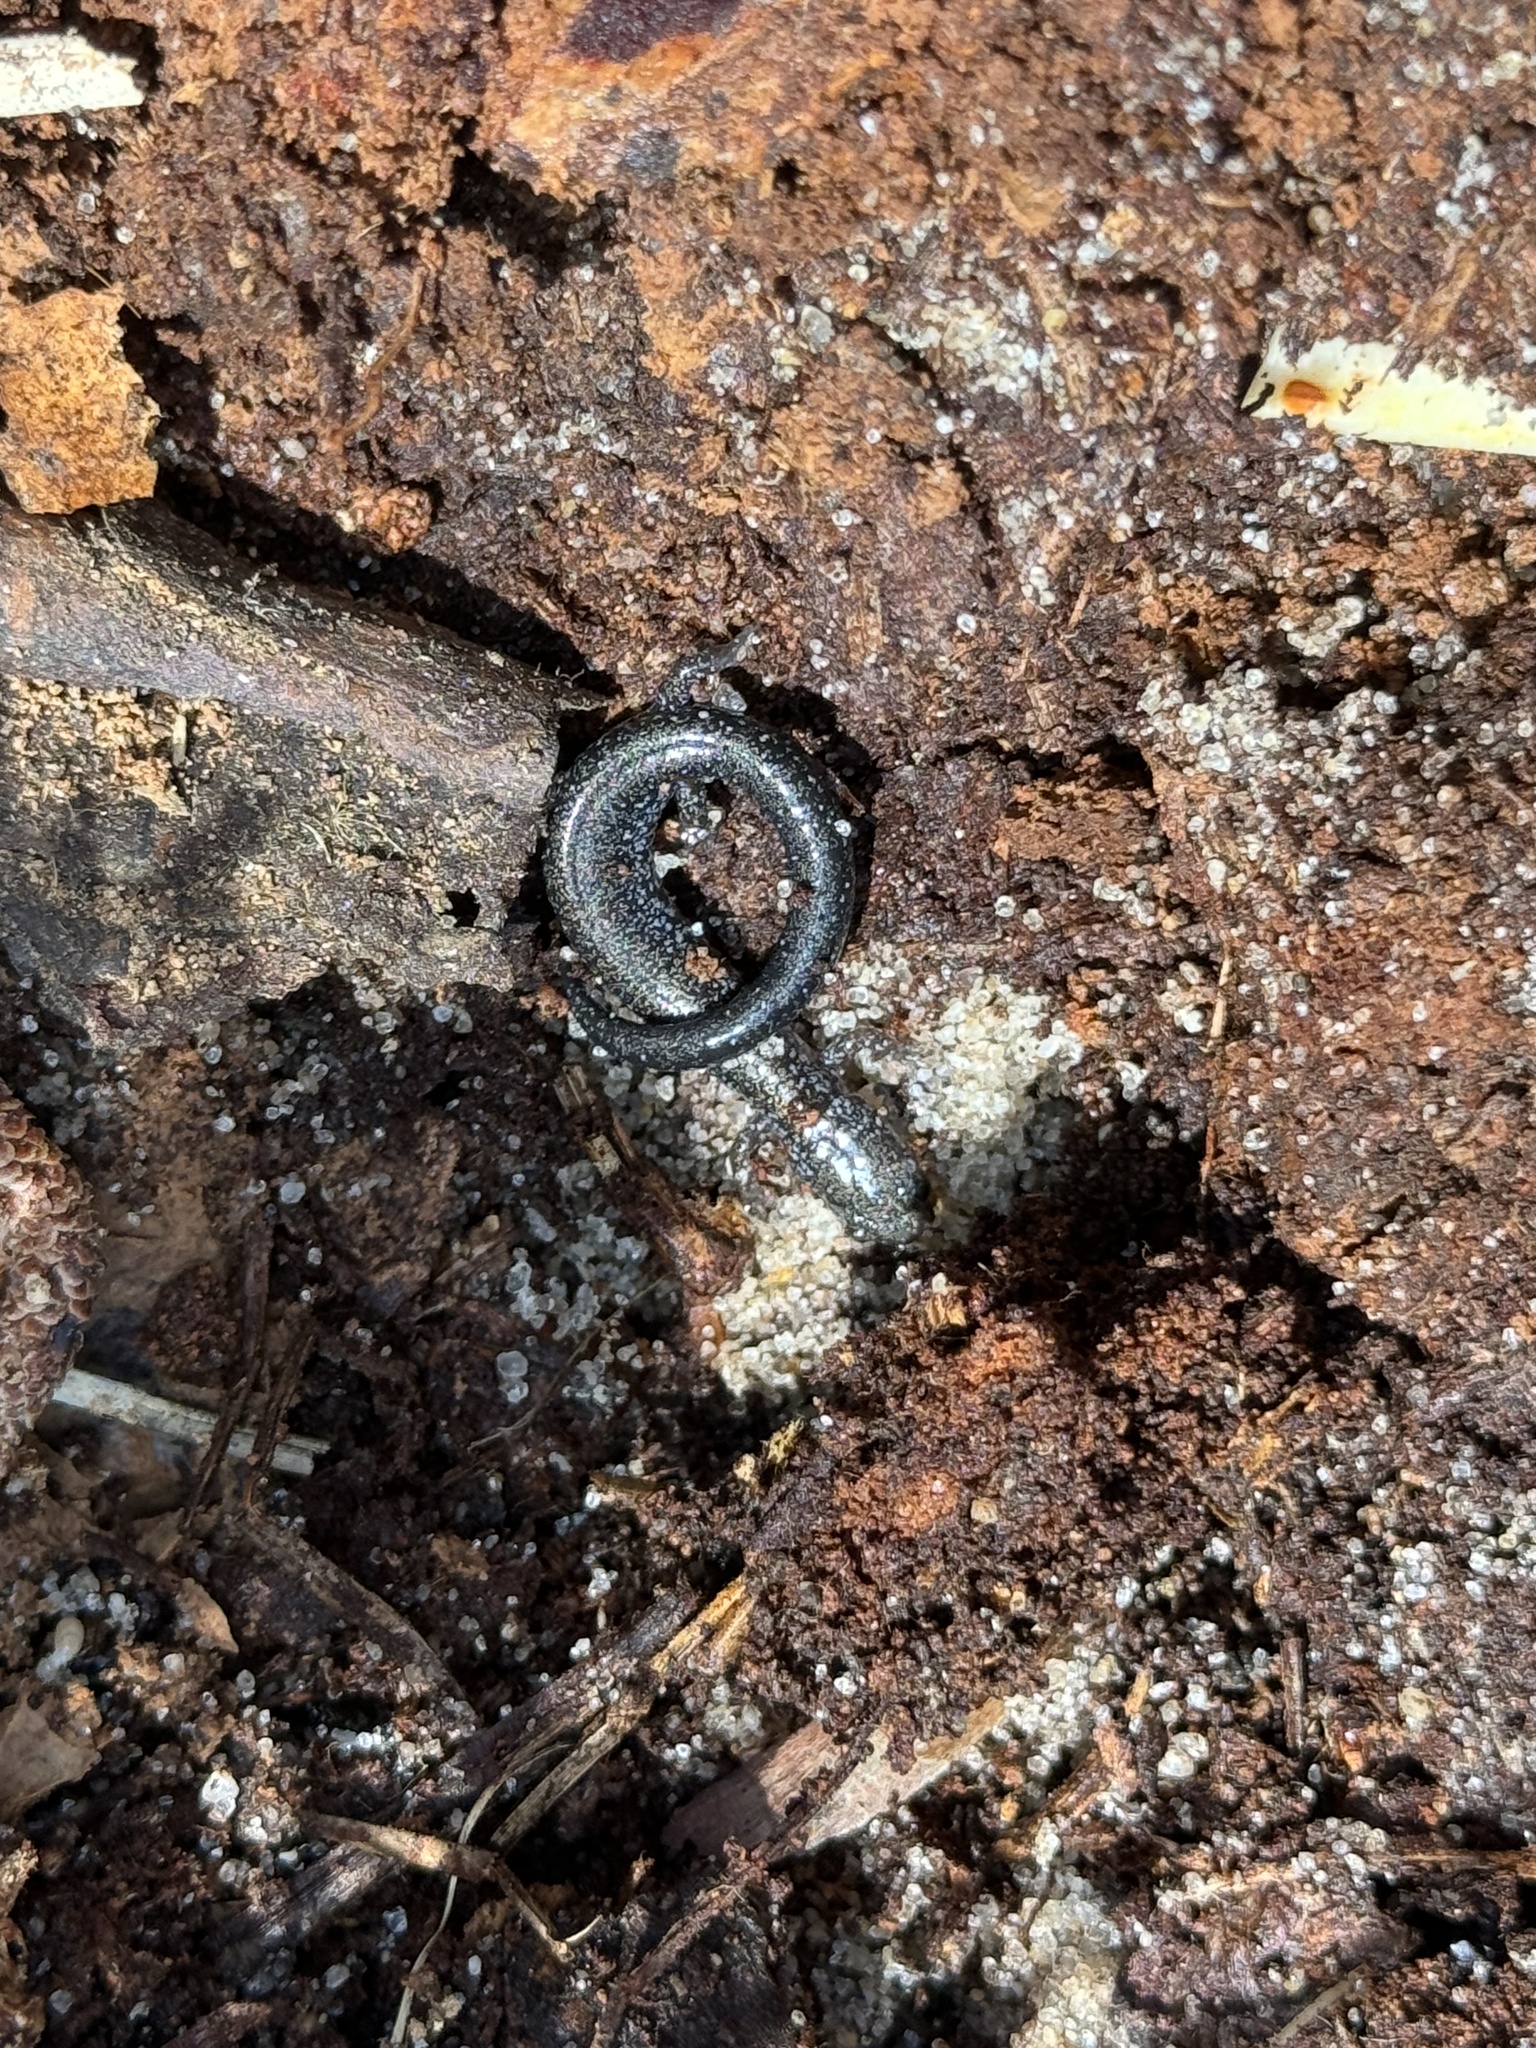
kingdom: Animalia
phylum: Chordata
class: Amphibia
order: Caudata
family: Plethodontidae
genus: Plethodon
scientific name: Plethodon cinereus
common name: Redback salamander
